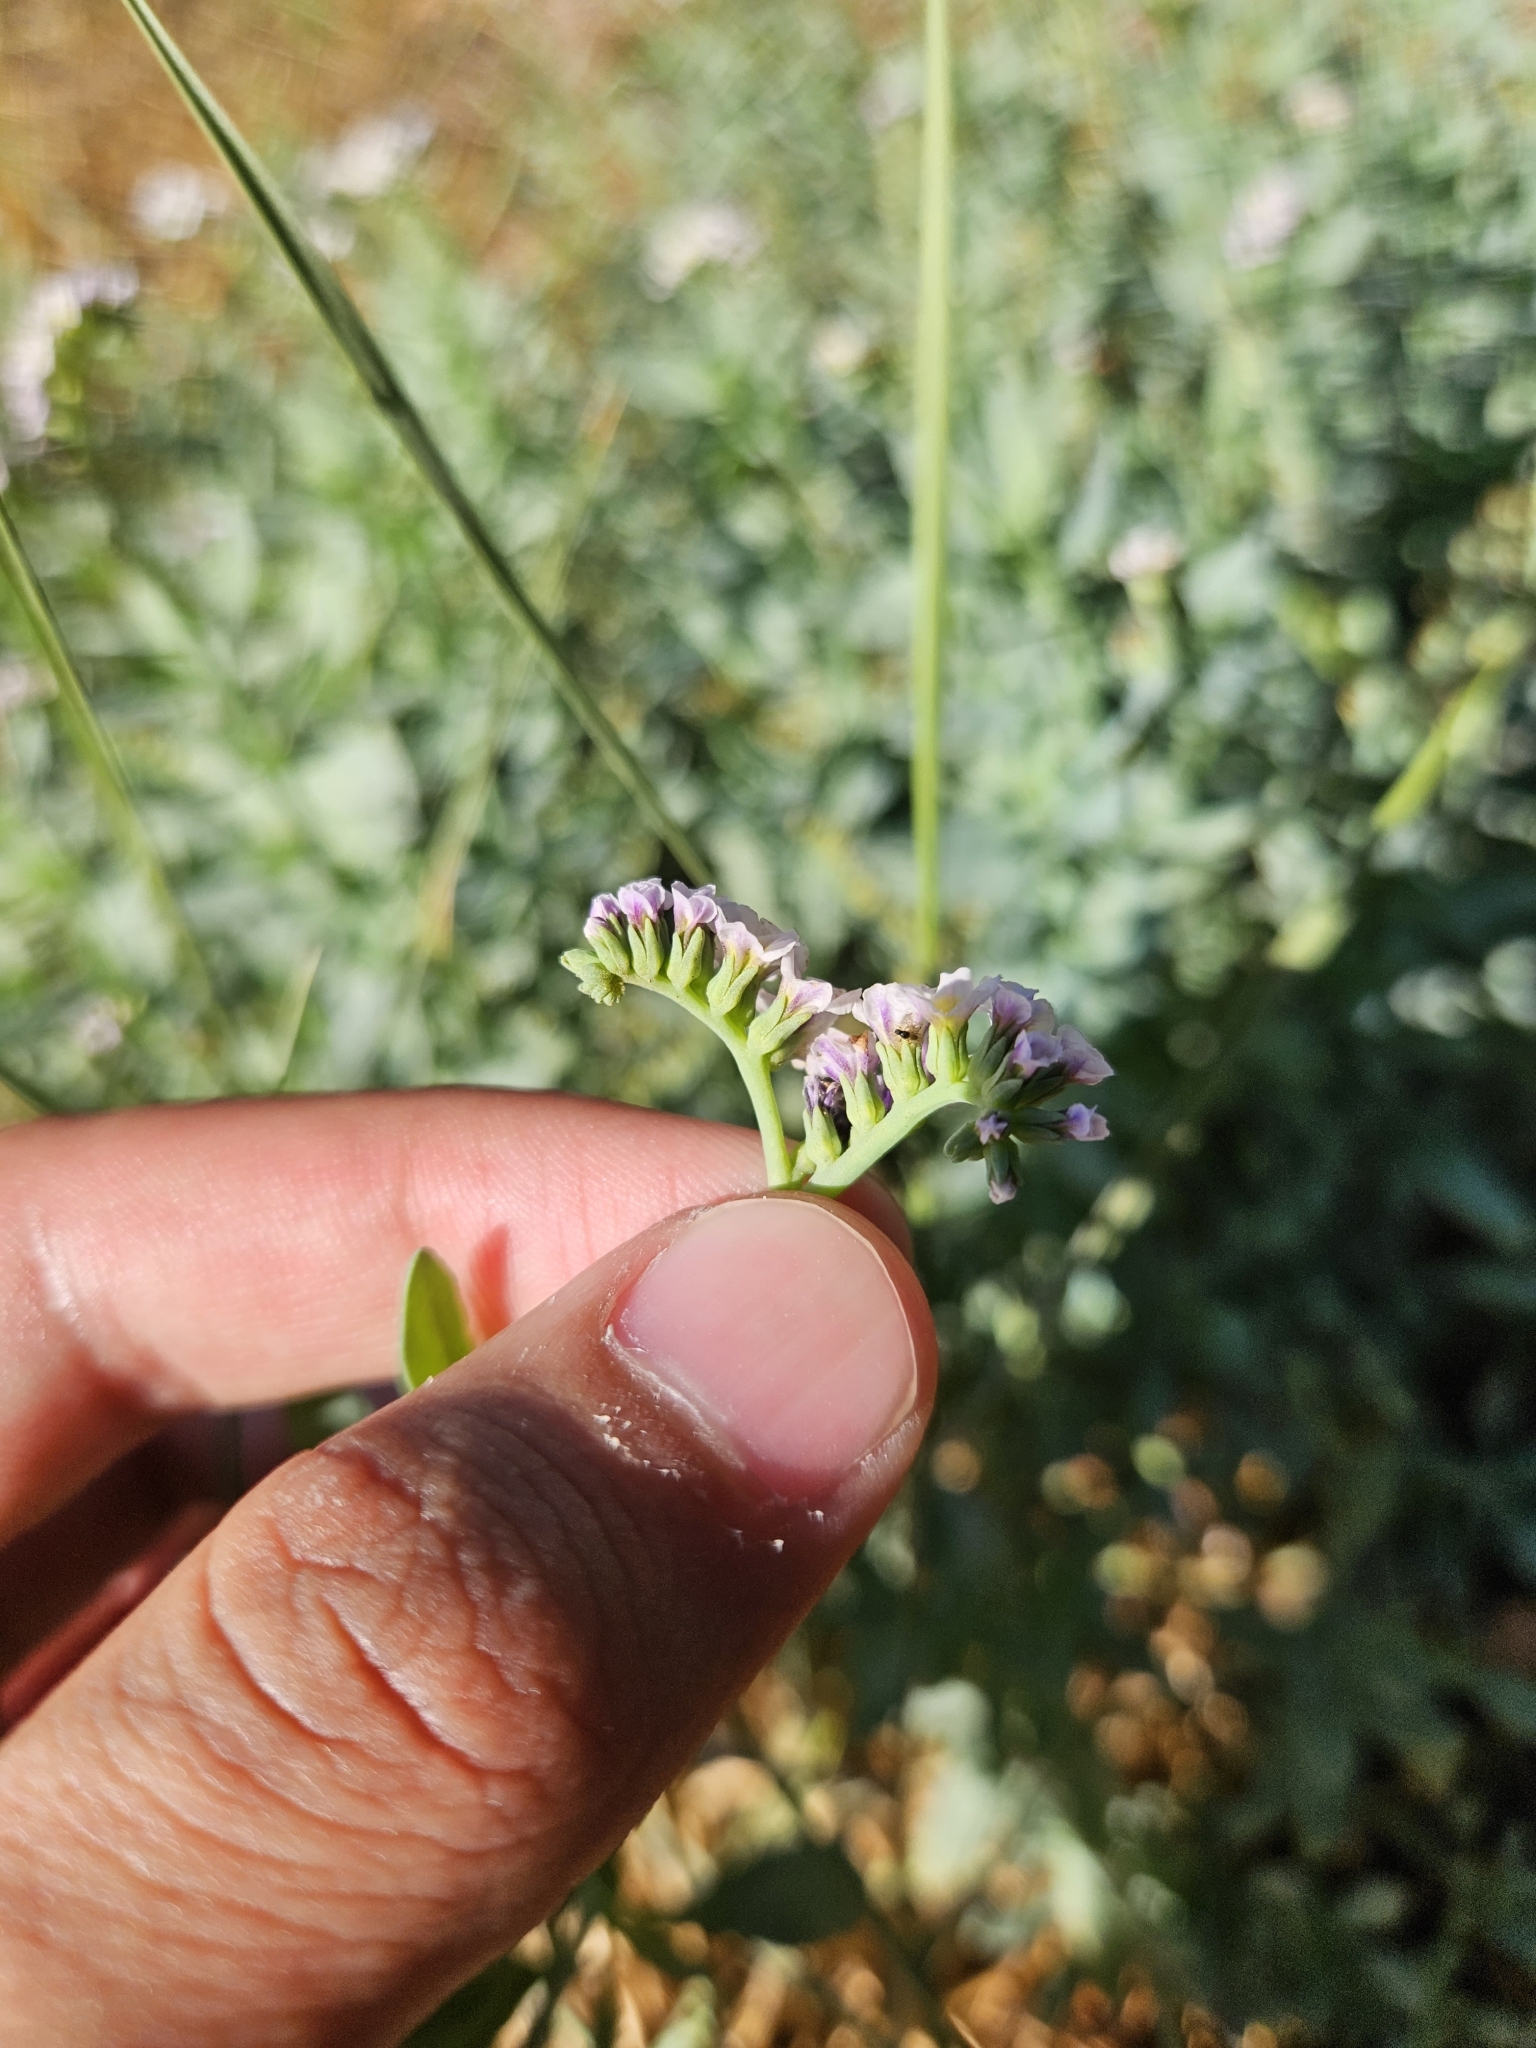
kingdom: Plantae
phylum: Tracheophyta
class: Magnoliopsida
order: Boraginales
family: Heliotropiaceae
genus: Heliotropium
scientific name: Heliotropium curassavicum
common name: Seaside heliotrope
